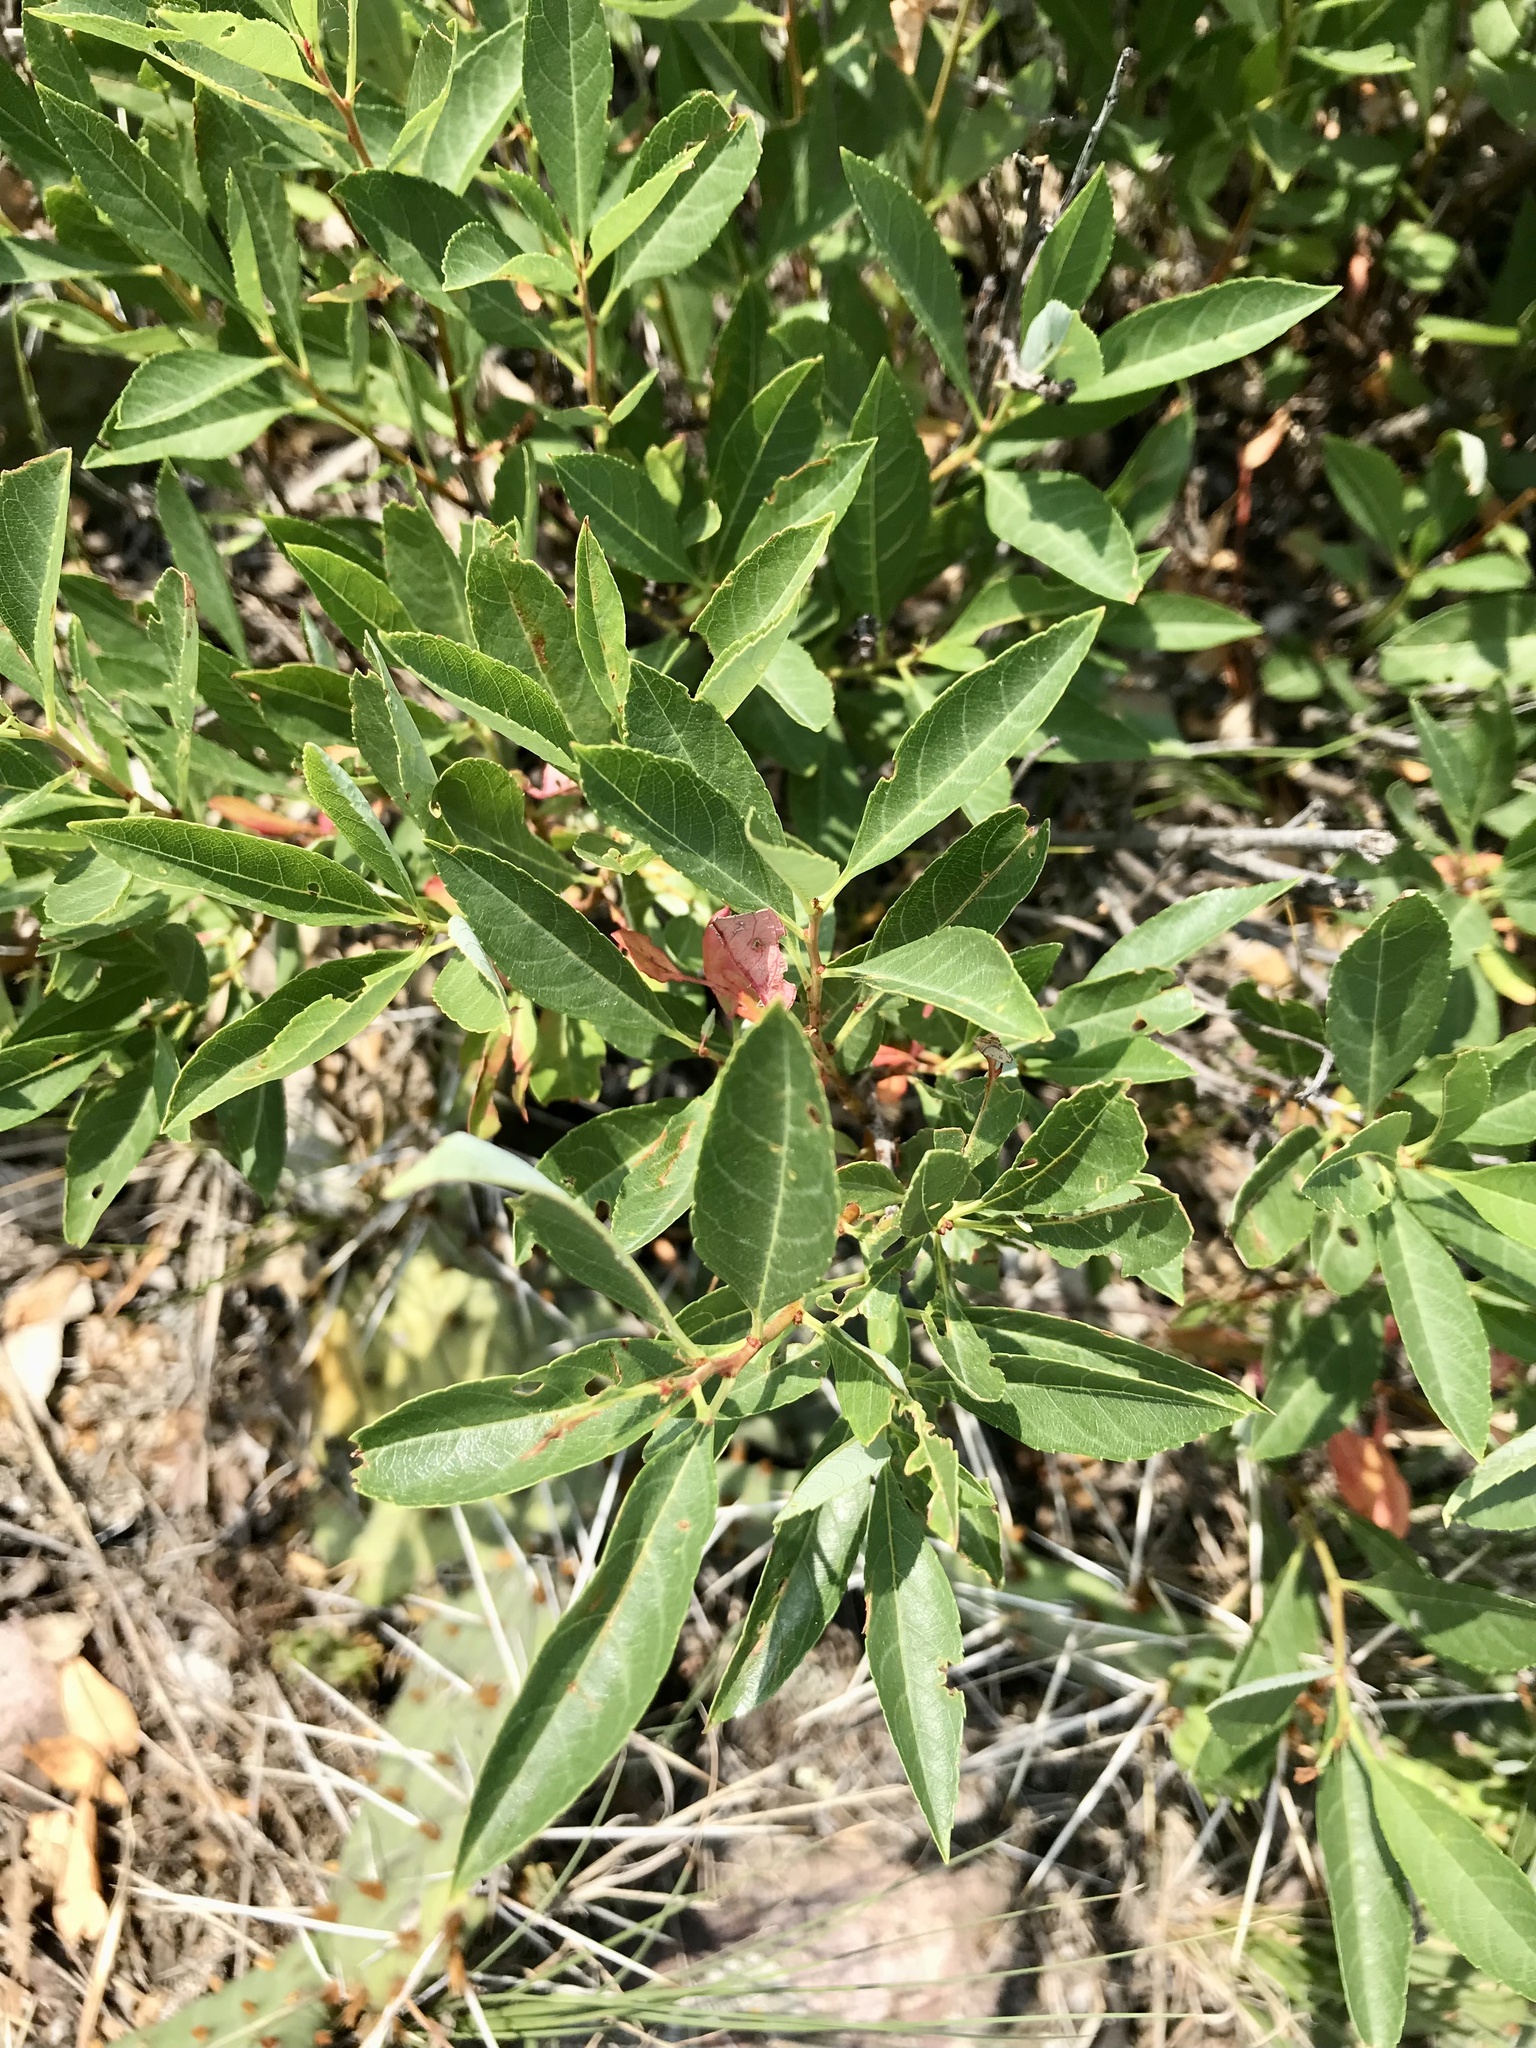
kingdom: Plantae
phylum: Tracheophyta
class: Magnoliopsida
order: Rosales
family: Rosaceae
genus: Prunus
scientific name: Prunus pumila
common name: Dwarf cherry
